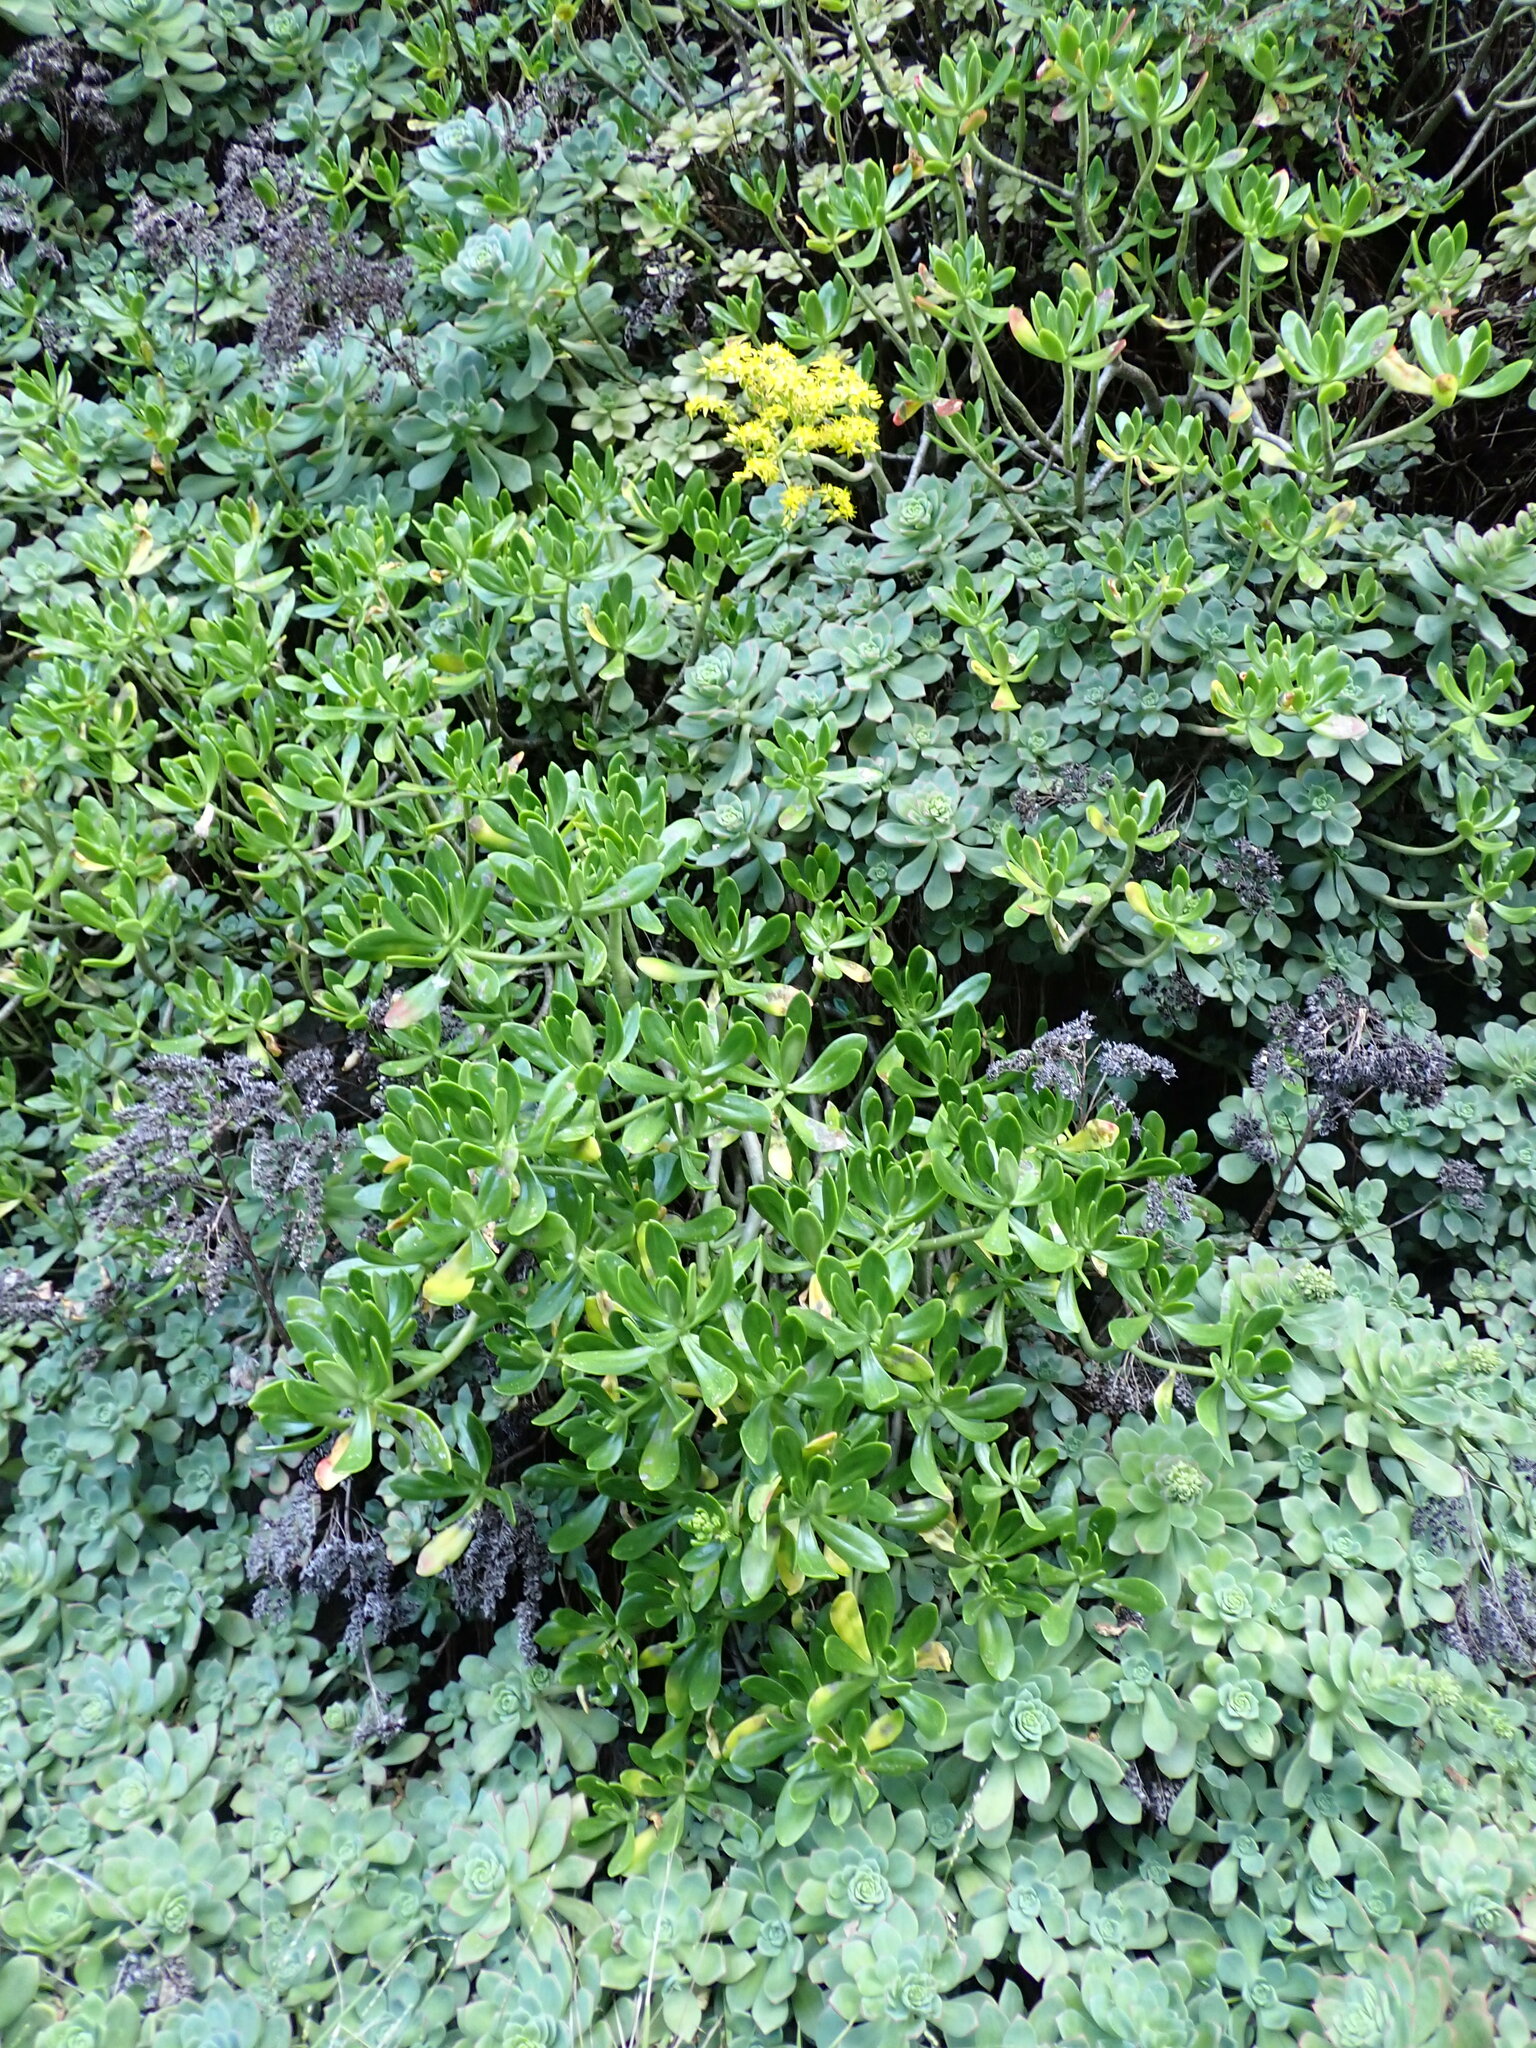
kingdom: Plantae
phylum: Tracheophyta
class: Magnoliopsida
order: Saxifragales
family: Crassulaceae
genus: Sedum
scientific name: Sedum praealtum
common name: Greater mexican-stonecrop
